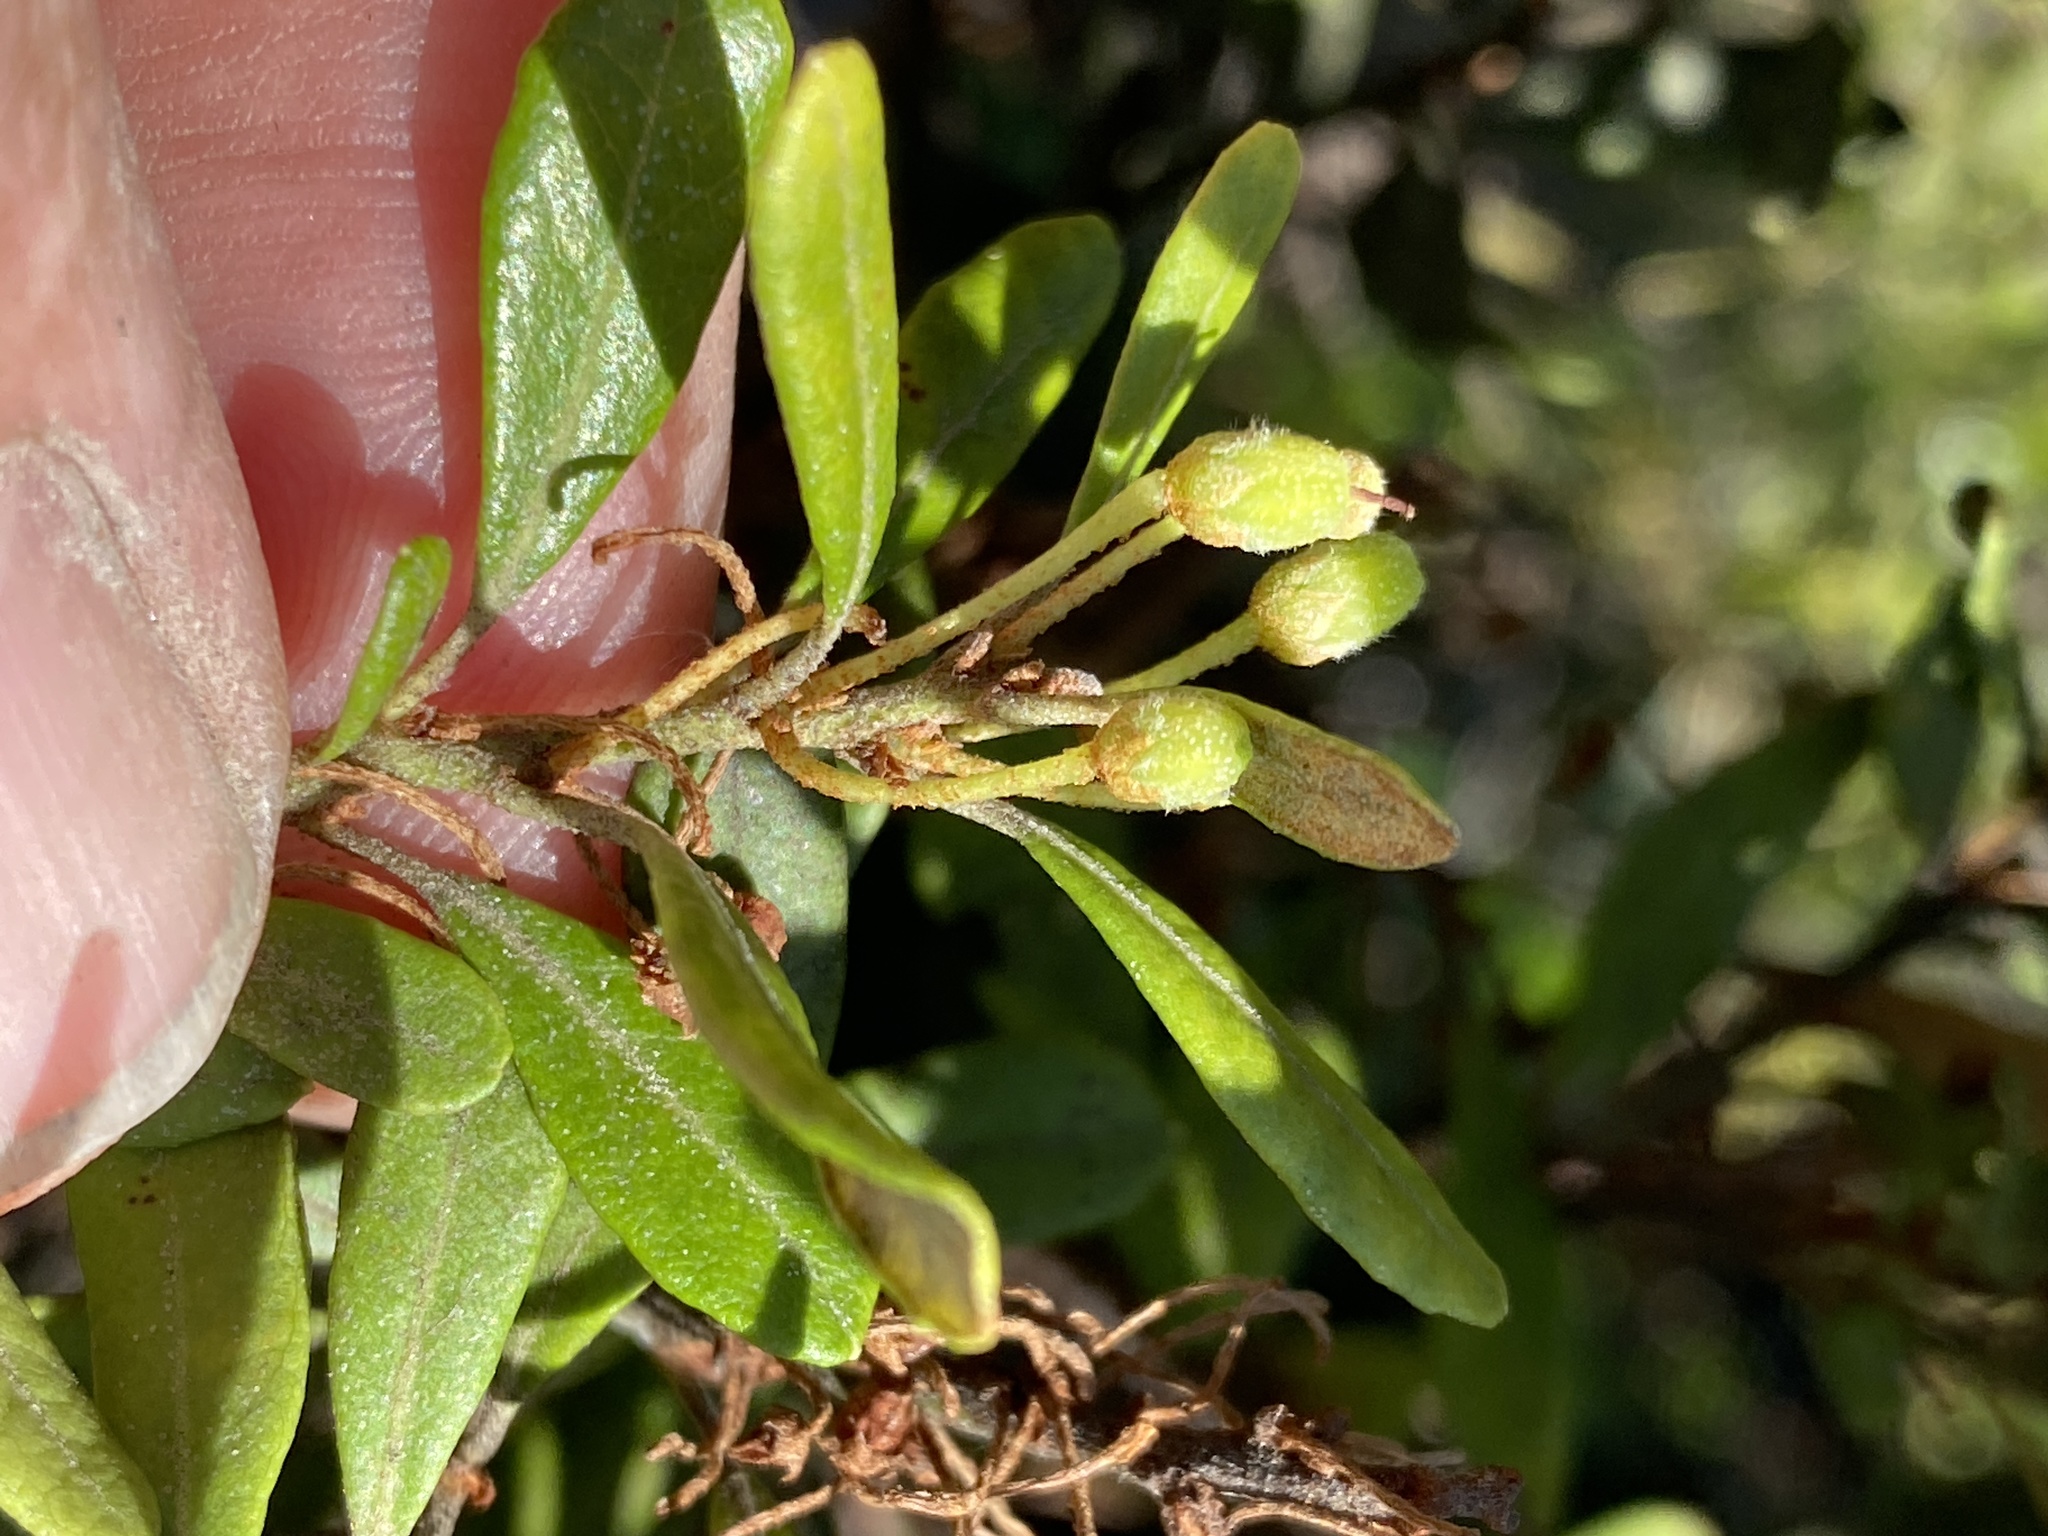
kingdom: Plantae
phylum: Tracheophyta
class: Magnoliopsida
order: Ericales
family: Ericaceae
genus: Lyonia
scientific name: Lyonia ferruginea
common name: Rusty lyonia
